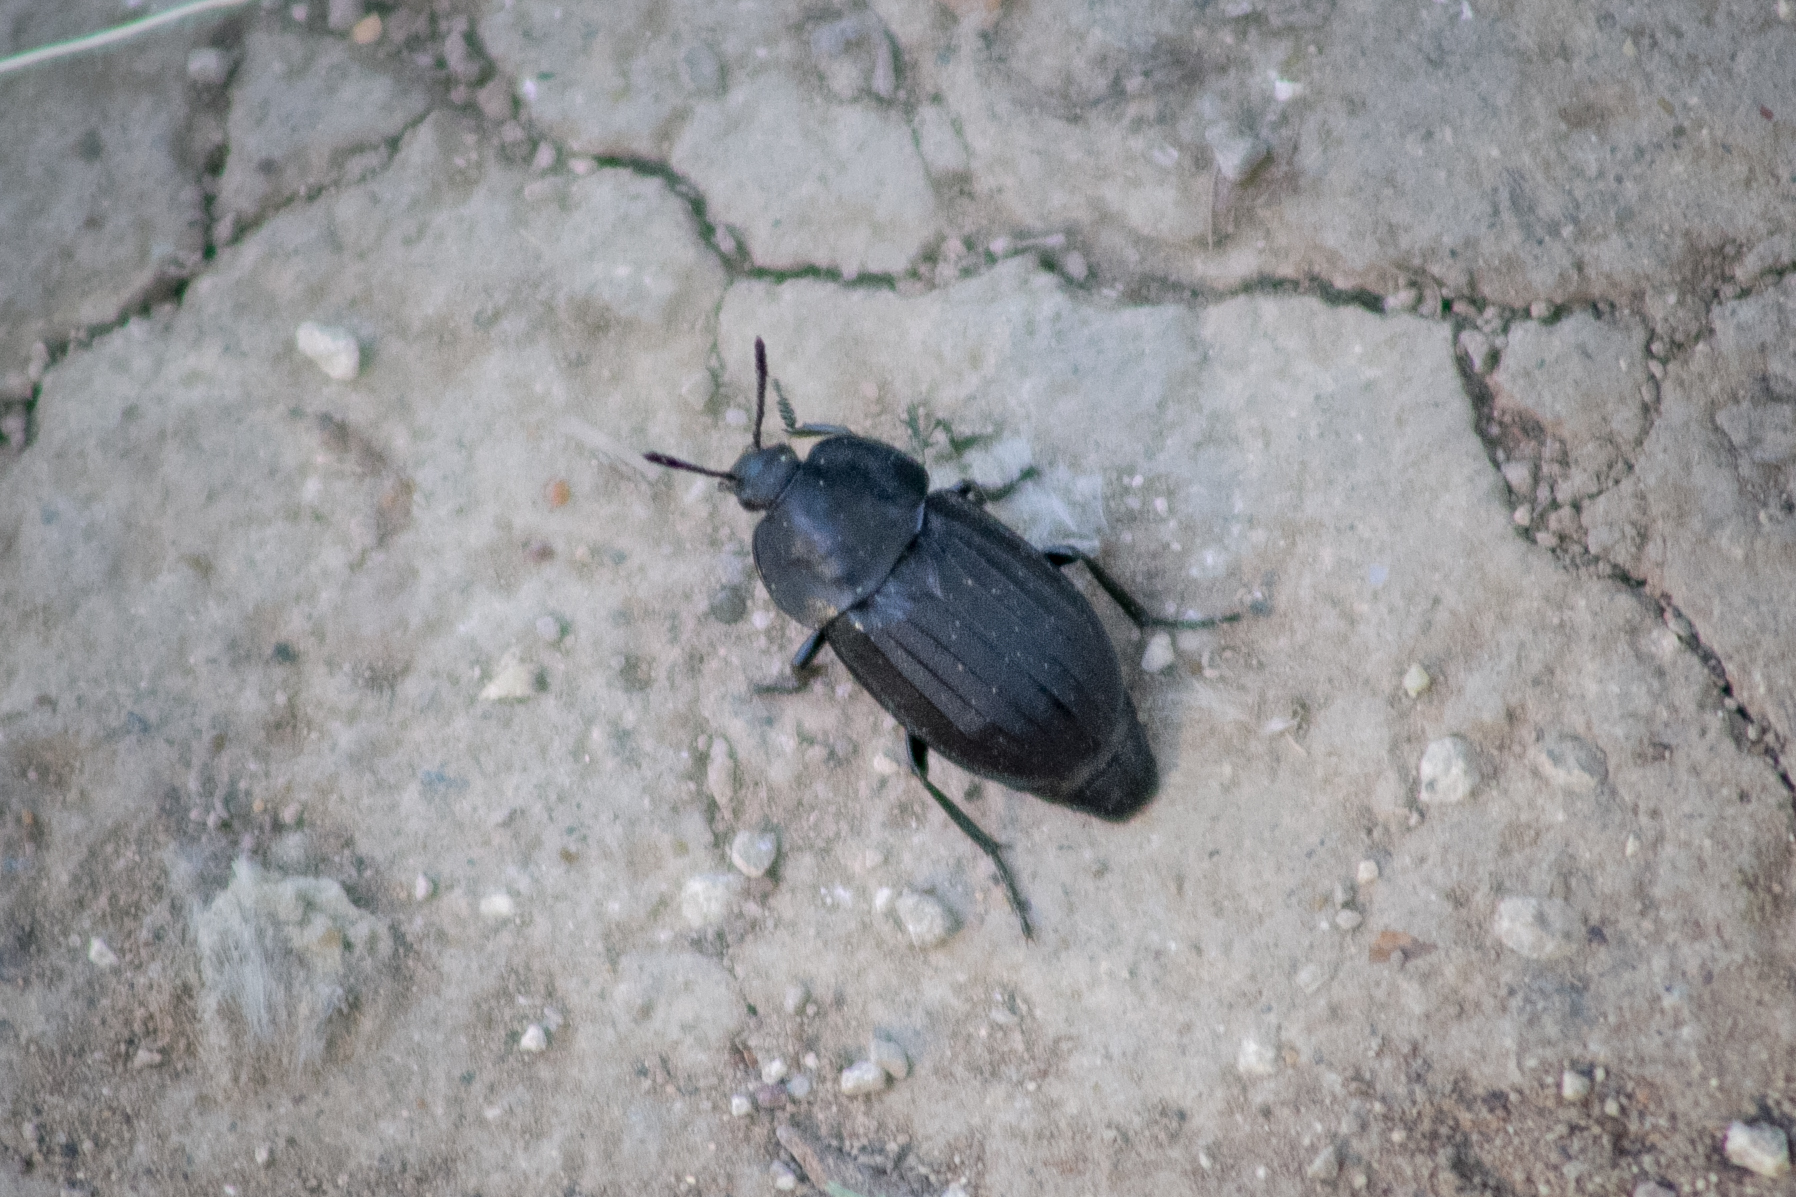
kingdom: Animalia
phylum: Arthropoda
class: Insecta
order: Coleoptera
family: Staphylinidae
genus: Silpha
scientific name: Silpha tristis
